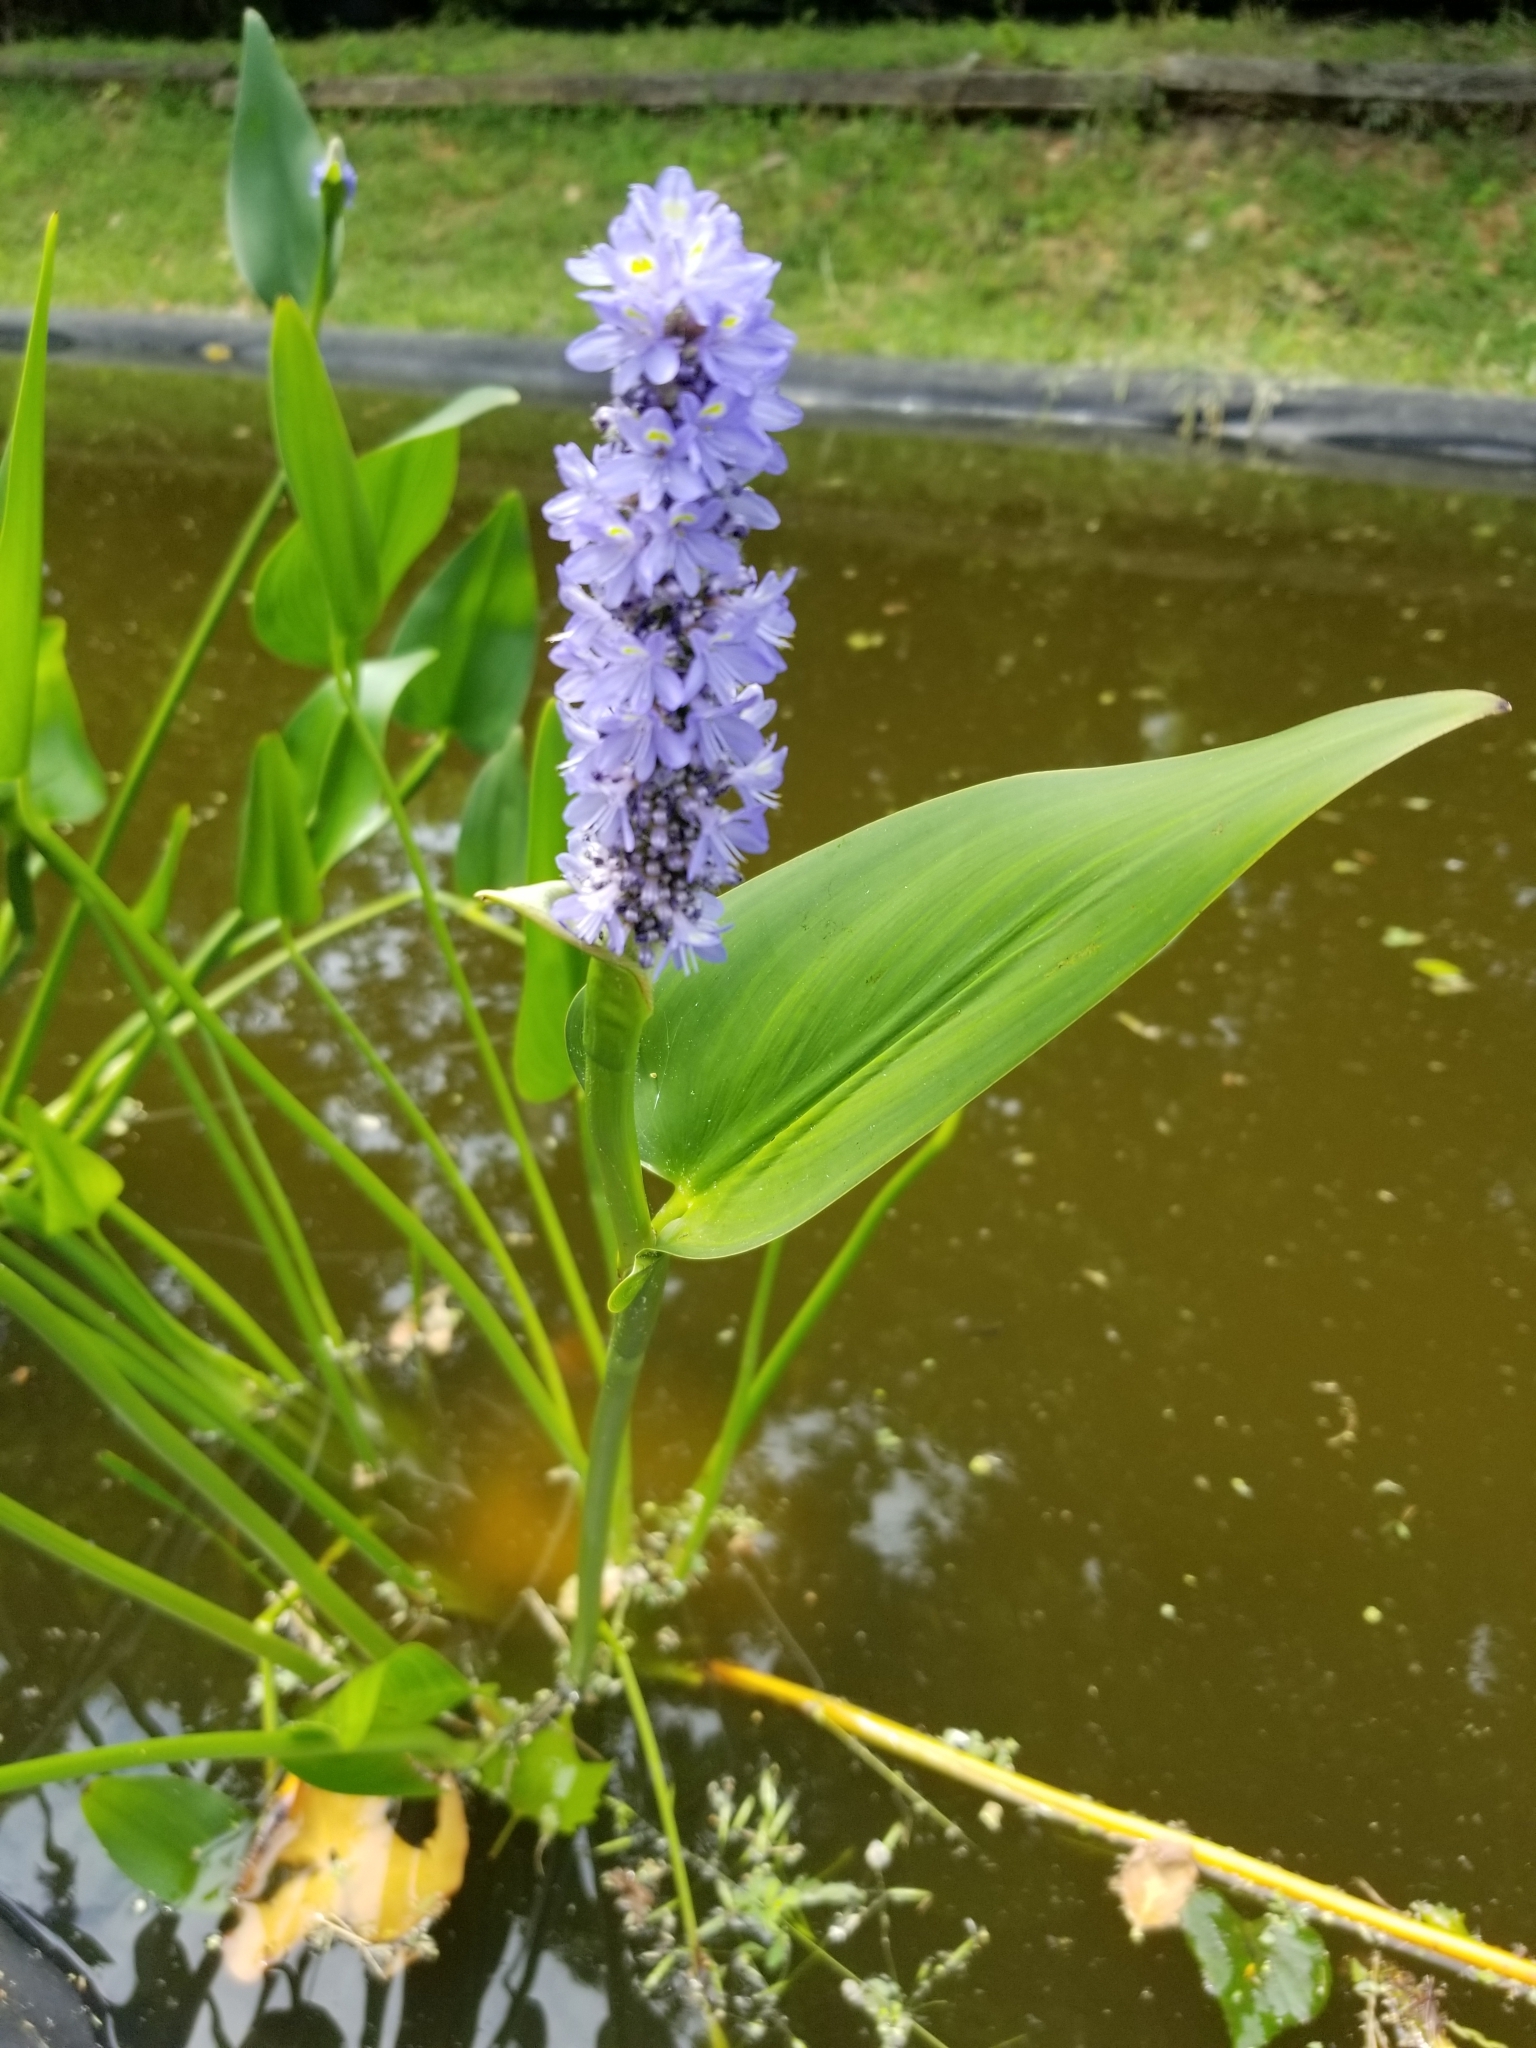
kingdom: Plantae
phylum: Tracheophyta
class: Liliopsida
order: Commelinales
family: Pontederiaceae
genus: Pontederia
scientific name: Pontederia cordata
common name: Pickerelweed
